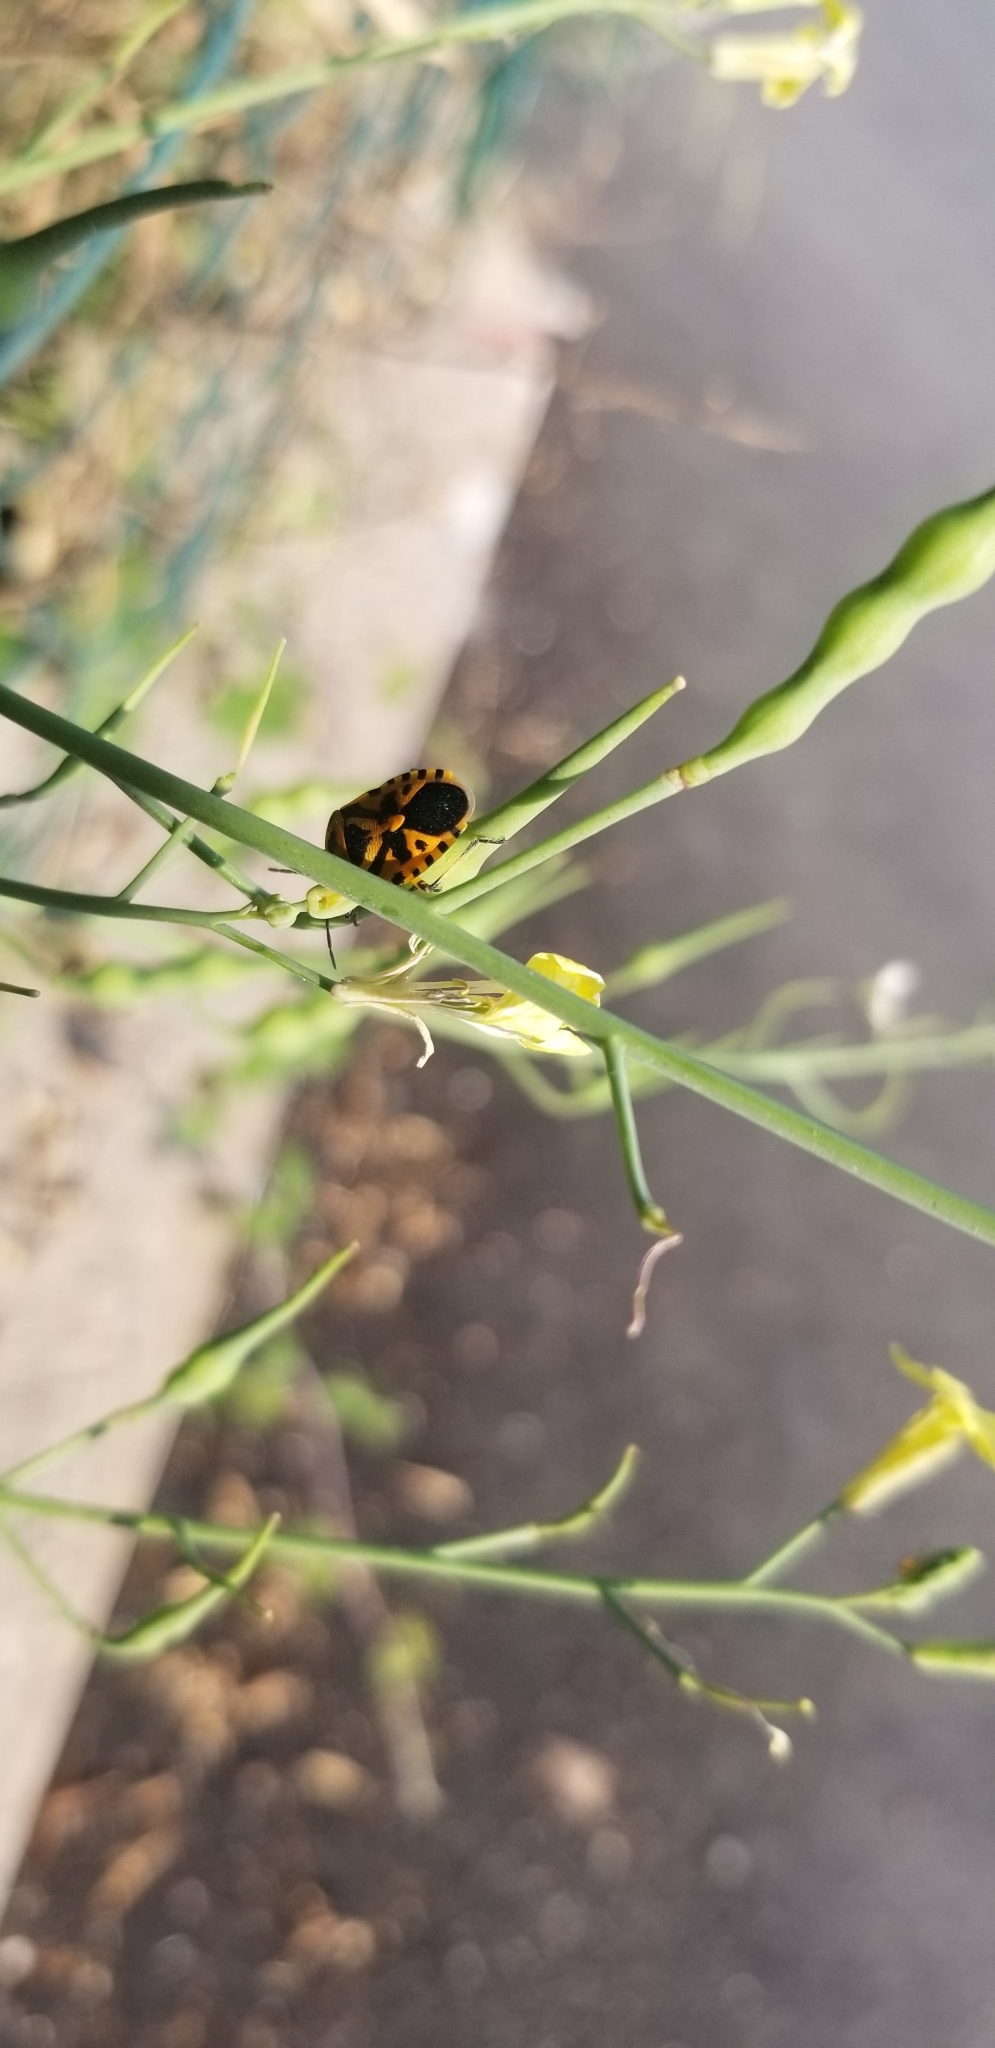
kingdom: Animalia
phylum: Arthropoda
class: Insecta
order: Hemiptera
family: Pentatomidae
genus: Eurydema
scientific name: Eurydema ventralis
